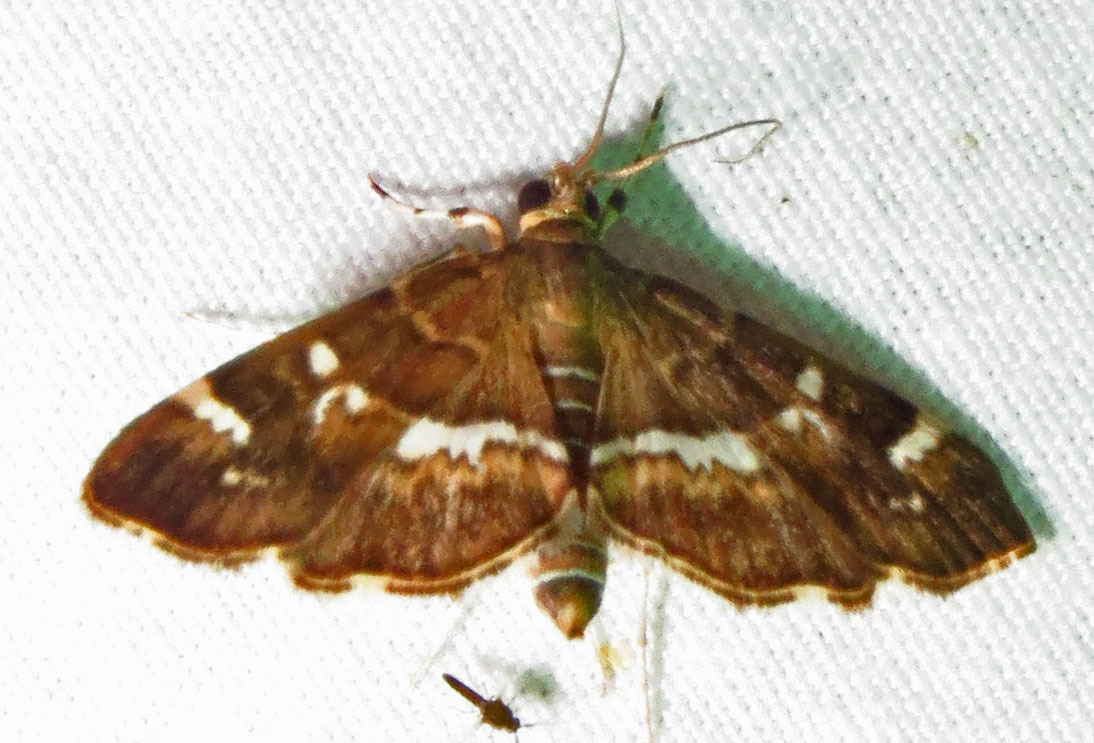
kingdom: Animalia
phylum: Arthropoda
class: Insecta
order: Lepidoptera
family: Crambidae
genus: Hymenia
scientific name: Hymenia perspectalis
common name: Spotted beet webworm
